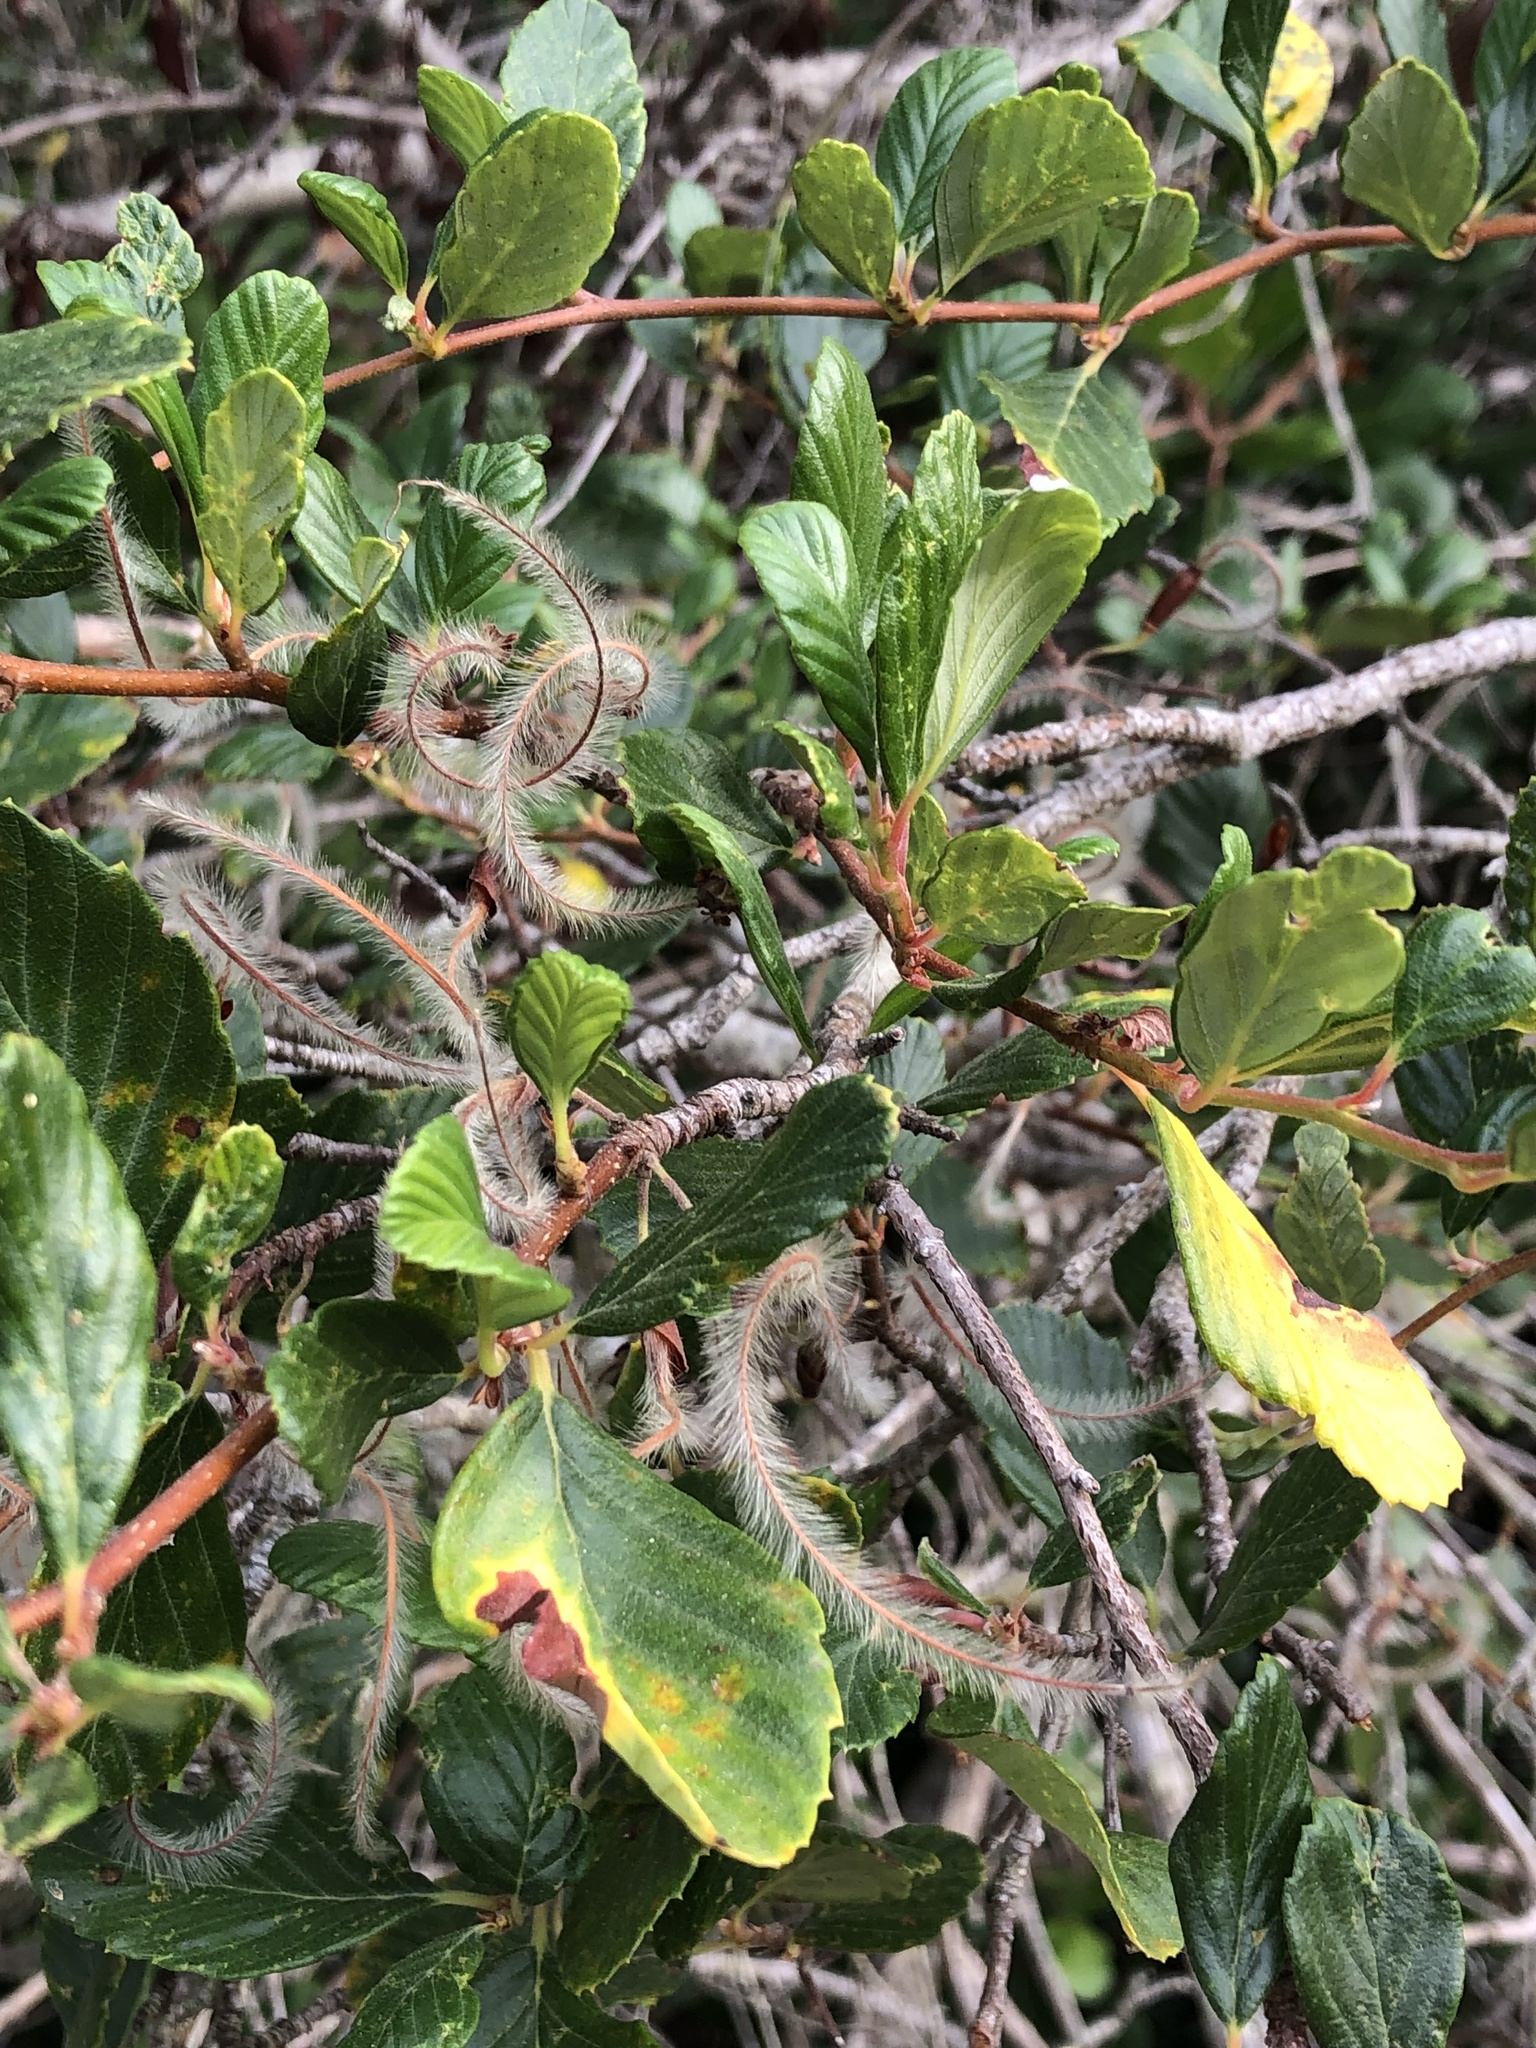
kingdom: Plantae
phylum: Tracheophyta
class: Magnoliopsida
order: Rosales
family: Rosaceae
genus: Cercocarpus
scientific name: Cercocarpus betuloides
